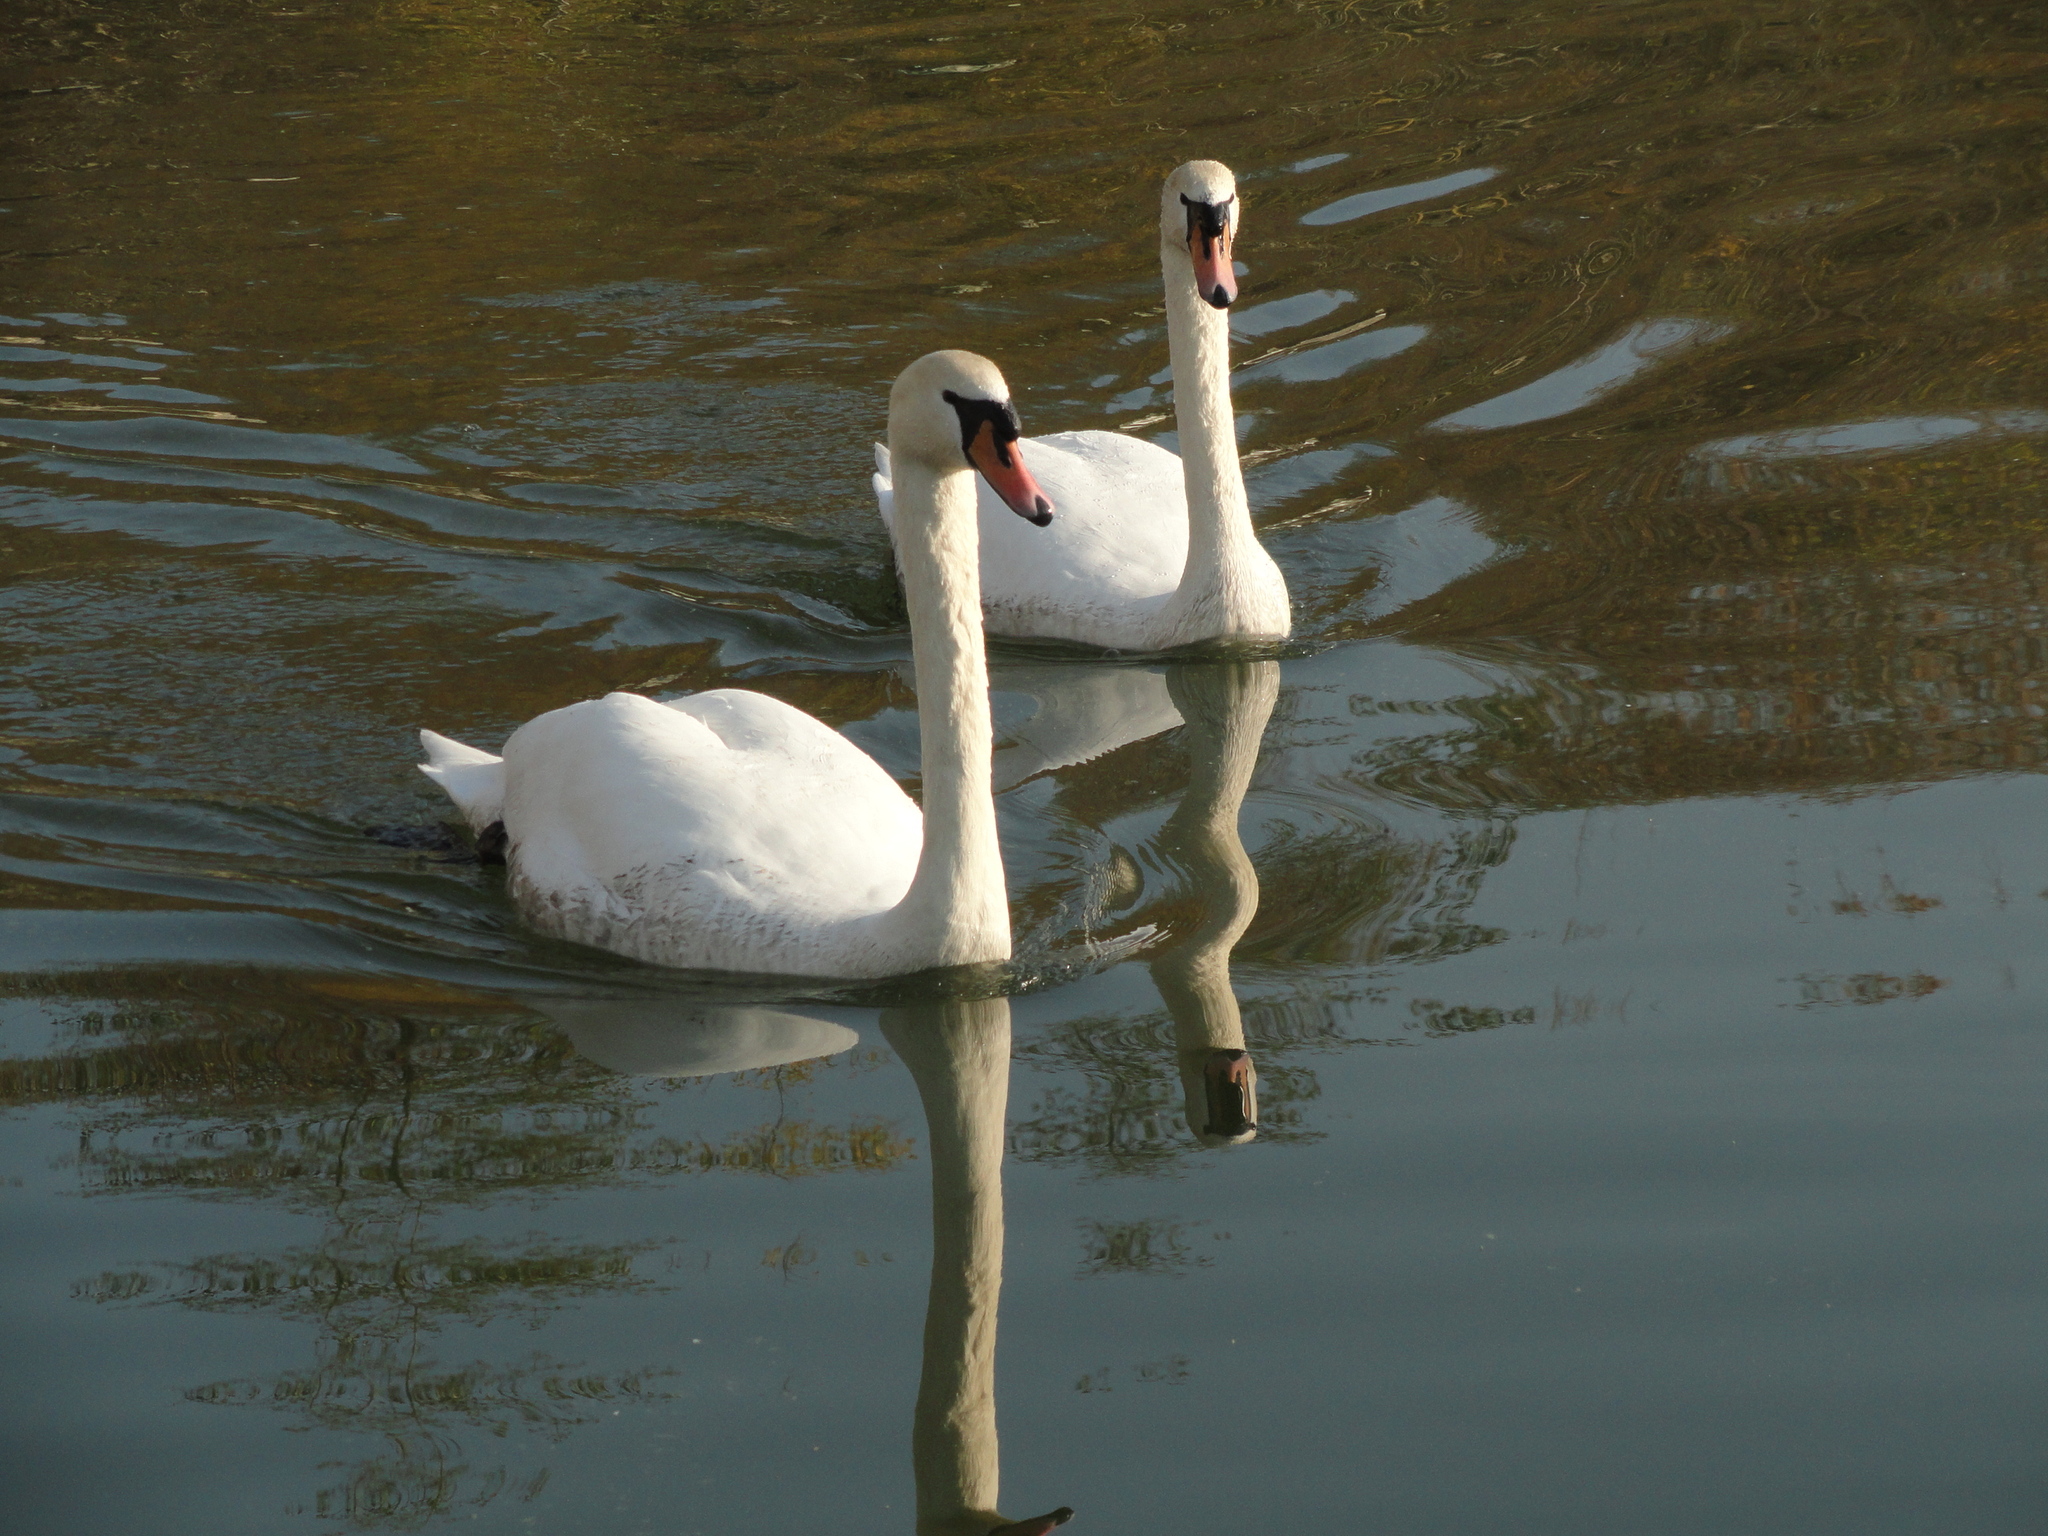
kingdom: Animalia
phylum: Chordata
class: Aves
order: Anseriformes
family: Anatidae
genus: Cygnus
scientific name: Cygnus olor
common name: Mute swan
